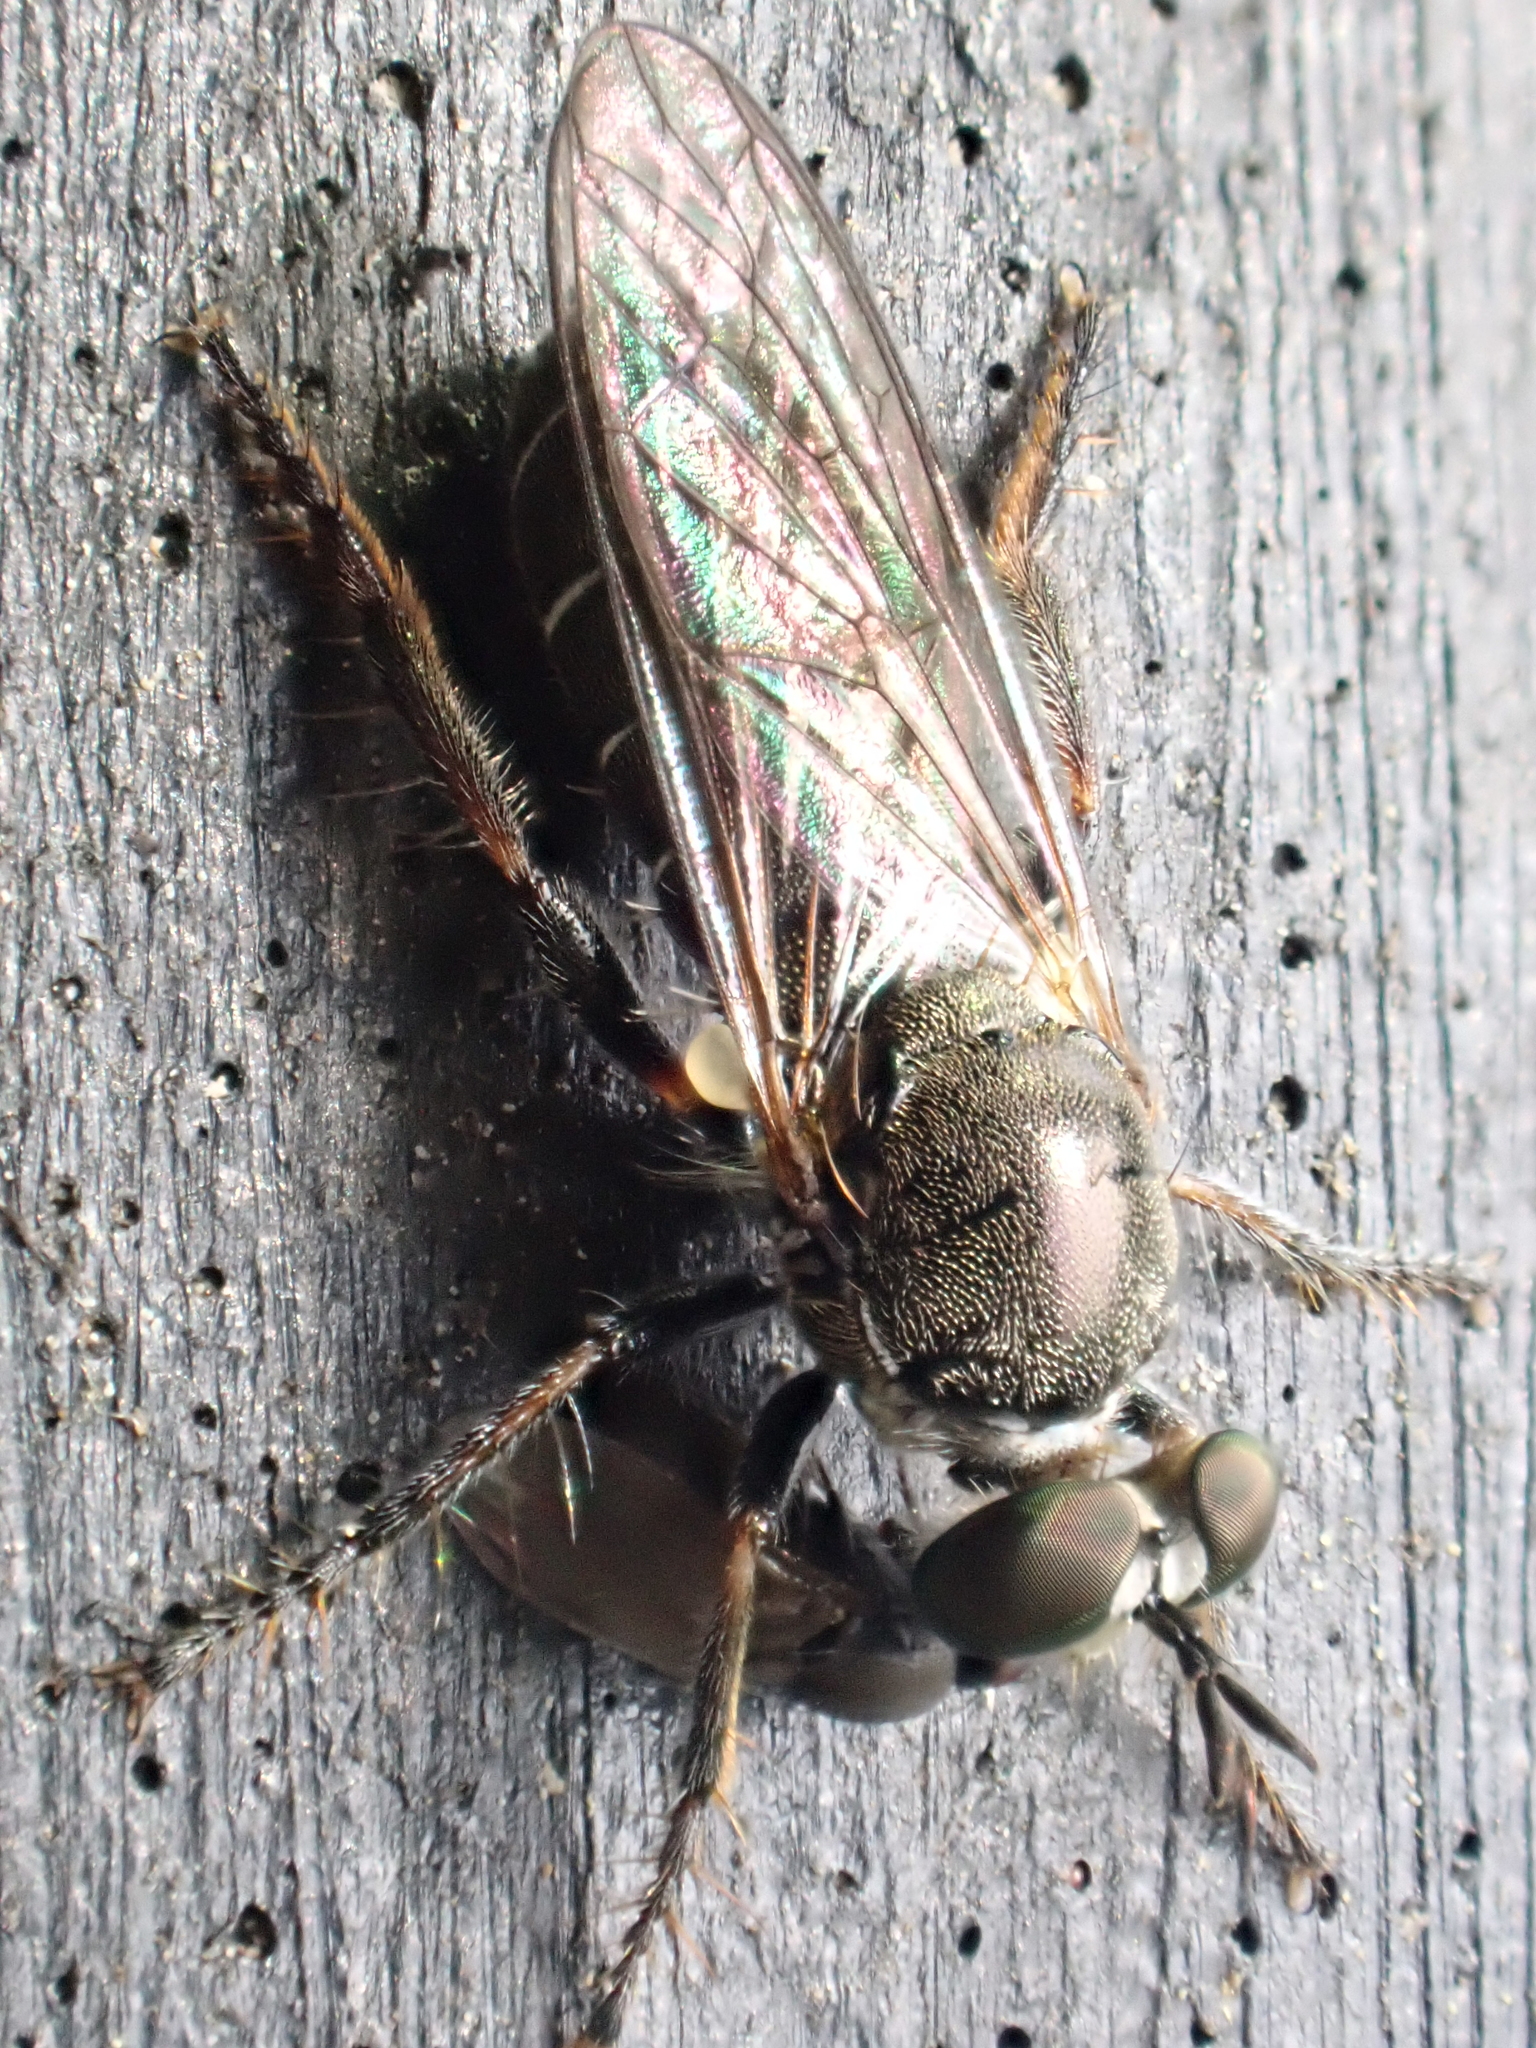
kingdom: Animalia
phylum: Arthropoda
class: Insecta
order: Diptera
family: Asilidae
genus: Atomosia
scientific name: Atomosia puella
